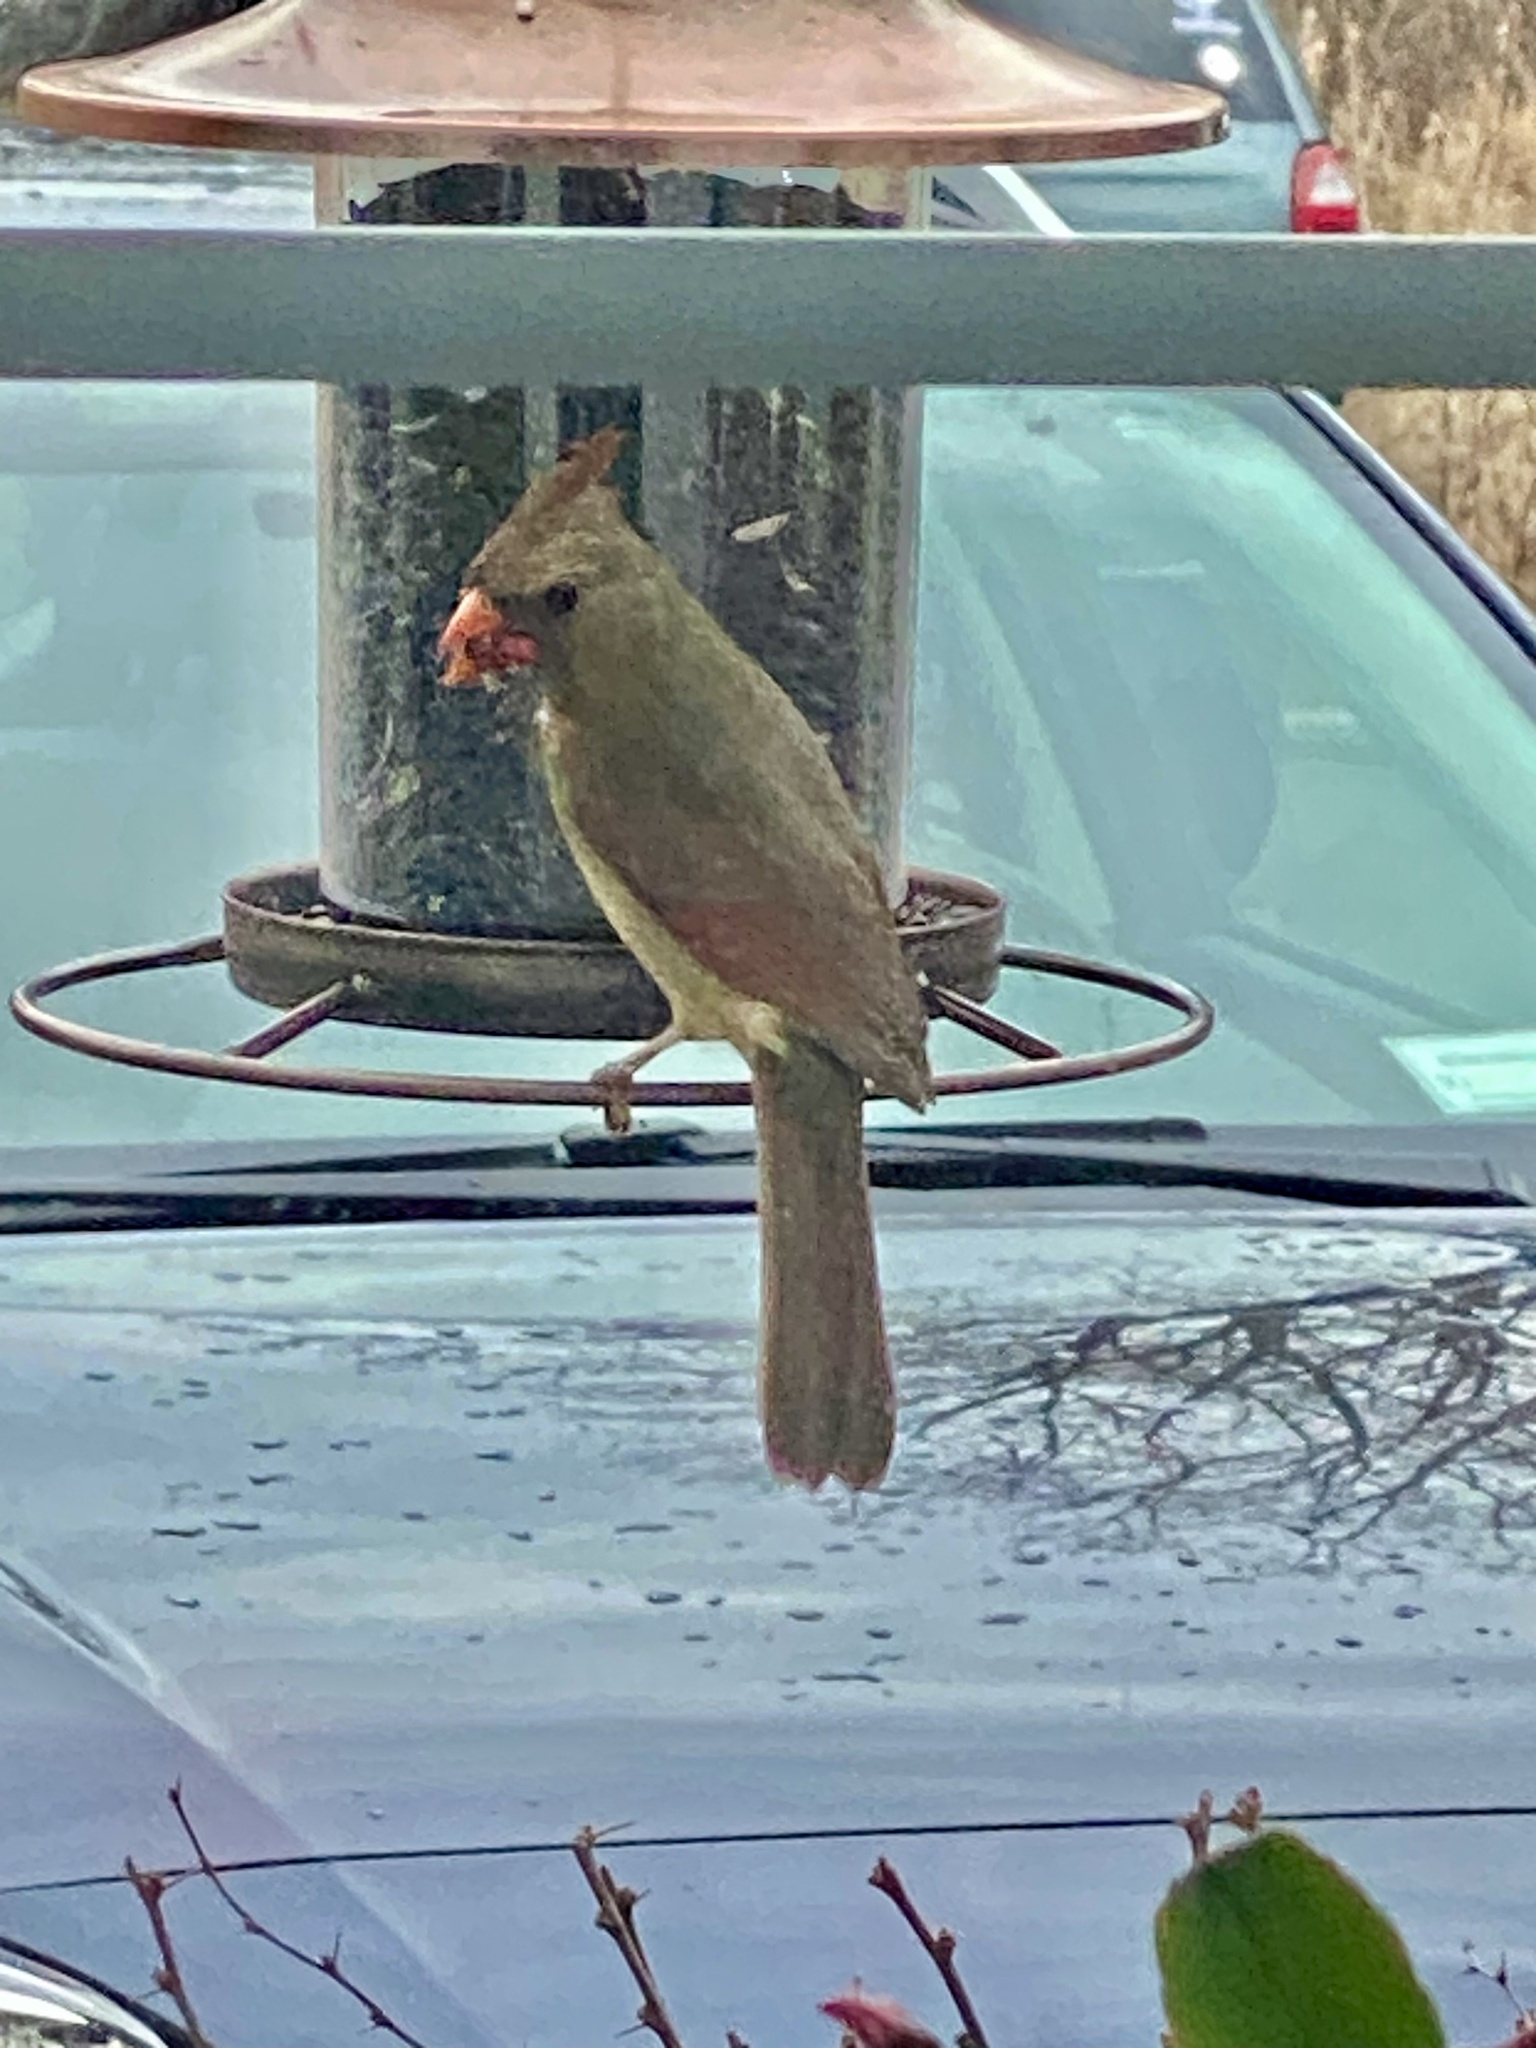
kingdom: Animalia
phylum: Chordata
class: Aves
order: Passeriformes
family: Cardinalidae
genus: Cardinalis
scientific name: Cardinalis cardinalis
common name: Northern cardinal
